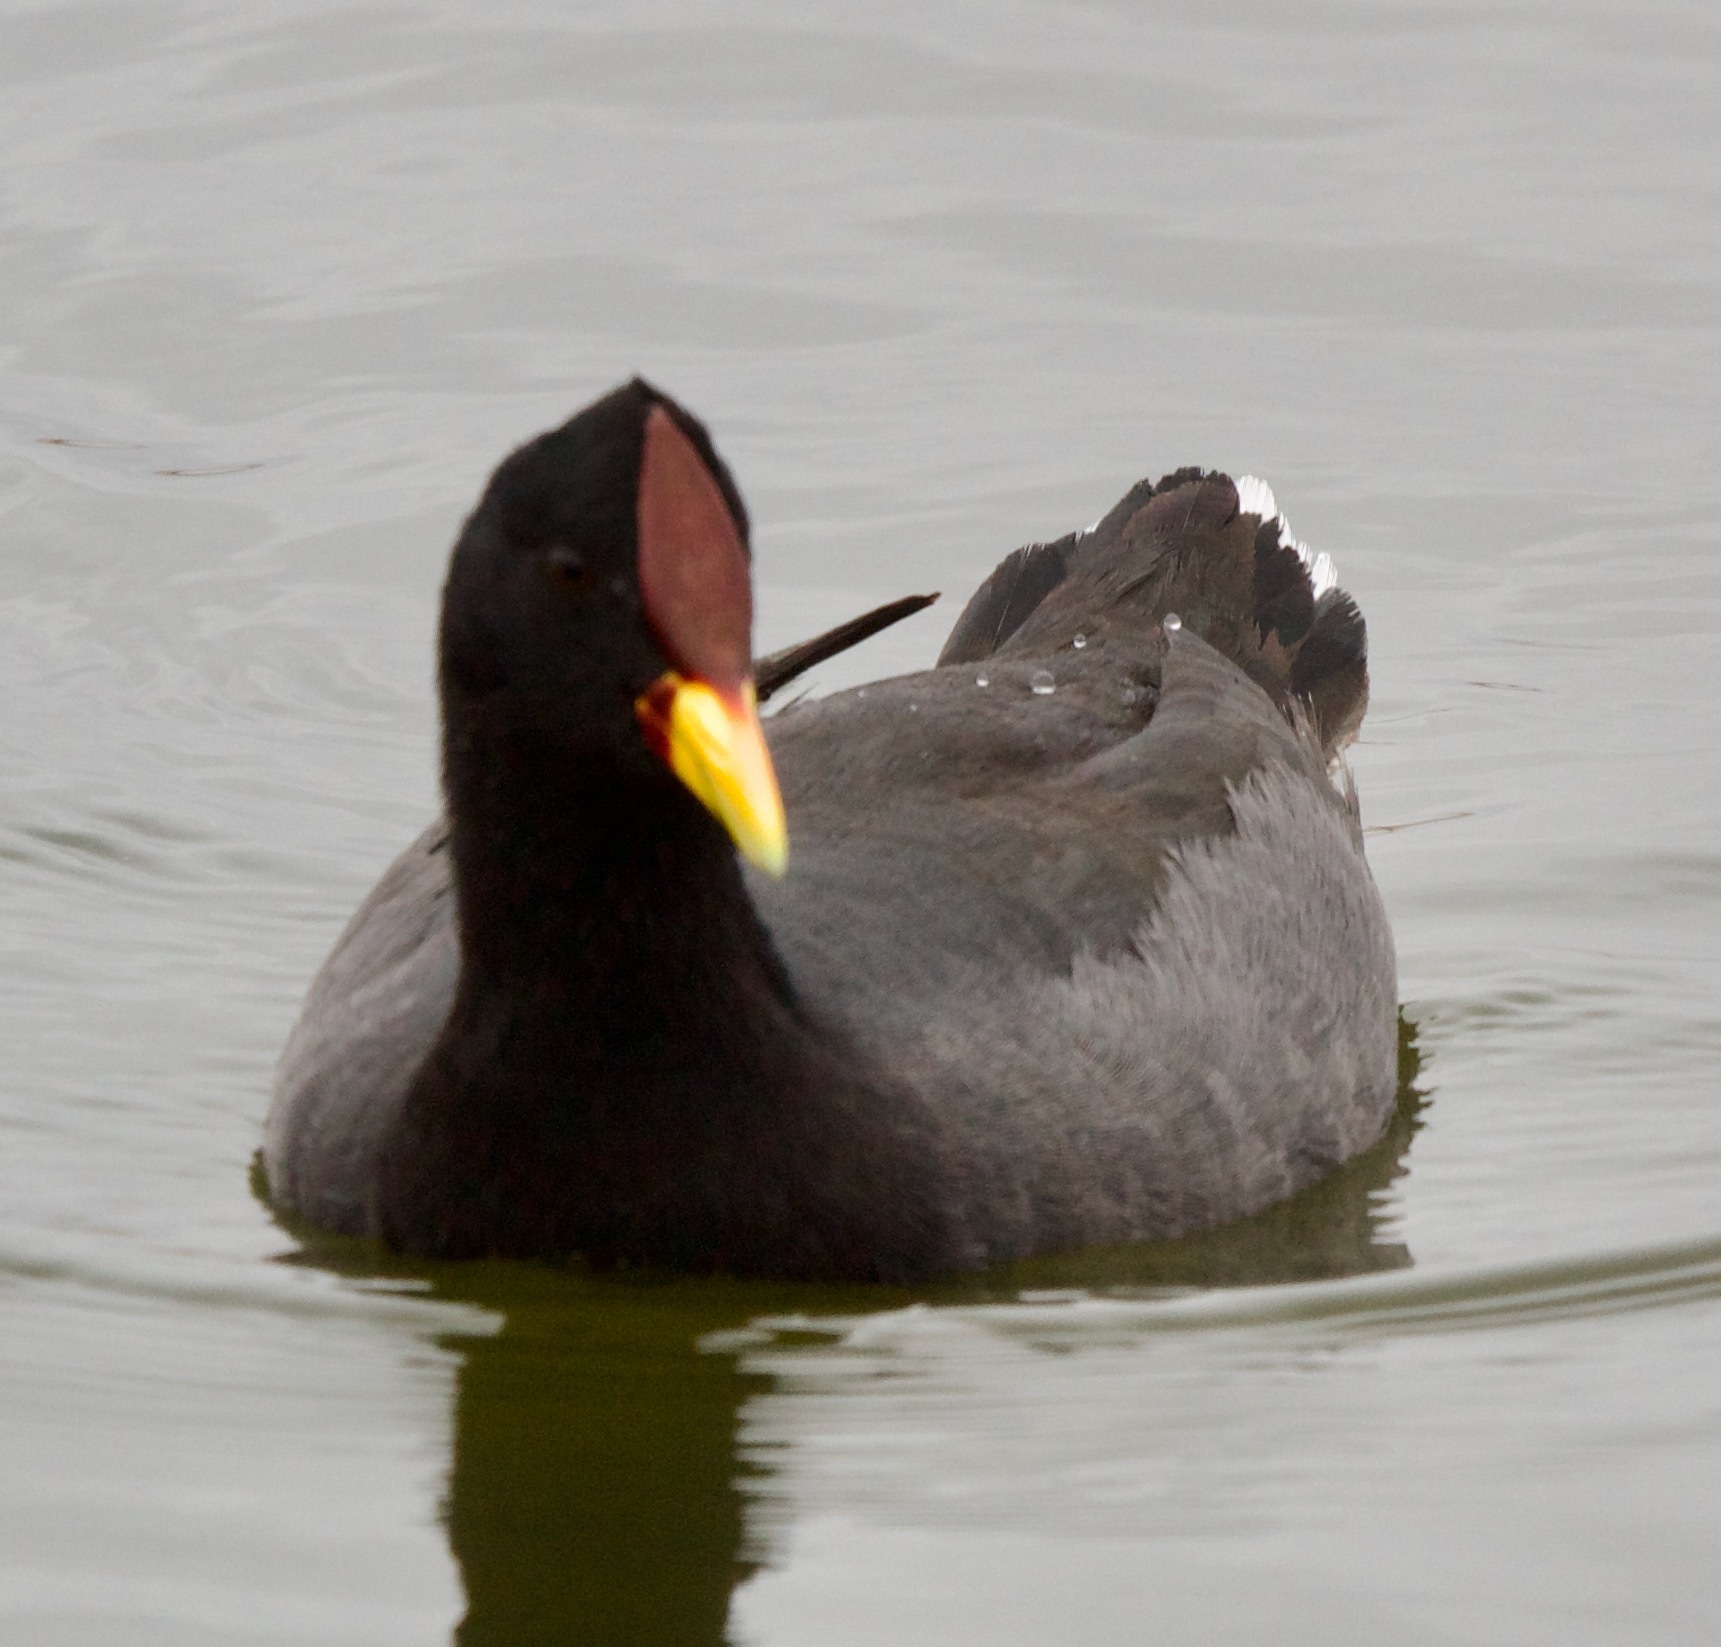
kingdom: Animalia
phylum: Chordata
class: Aves
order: Gruiformes
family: Rallidae
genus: Fulica
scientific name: Fulica rufifrons
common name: Red-fronted coot
